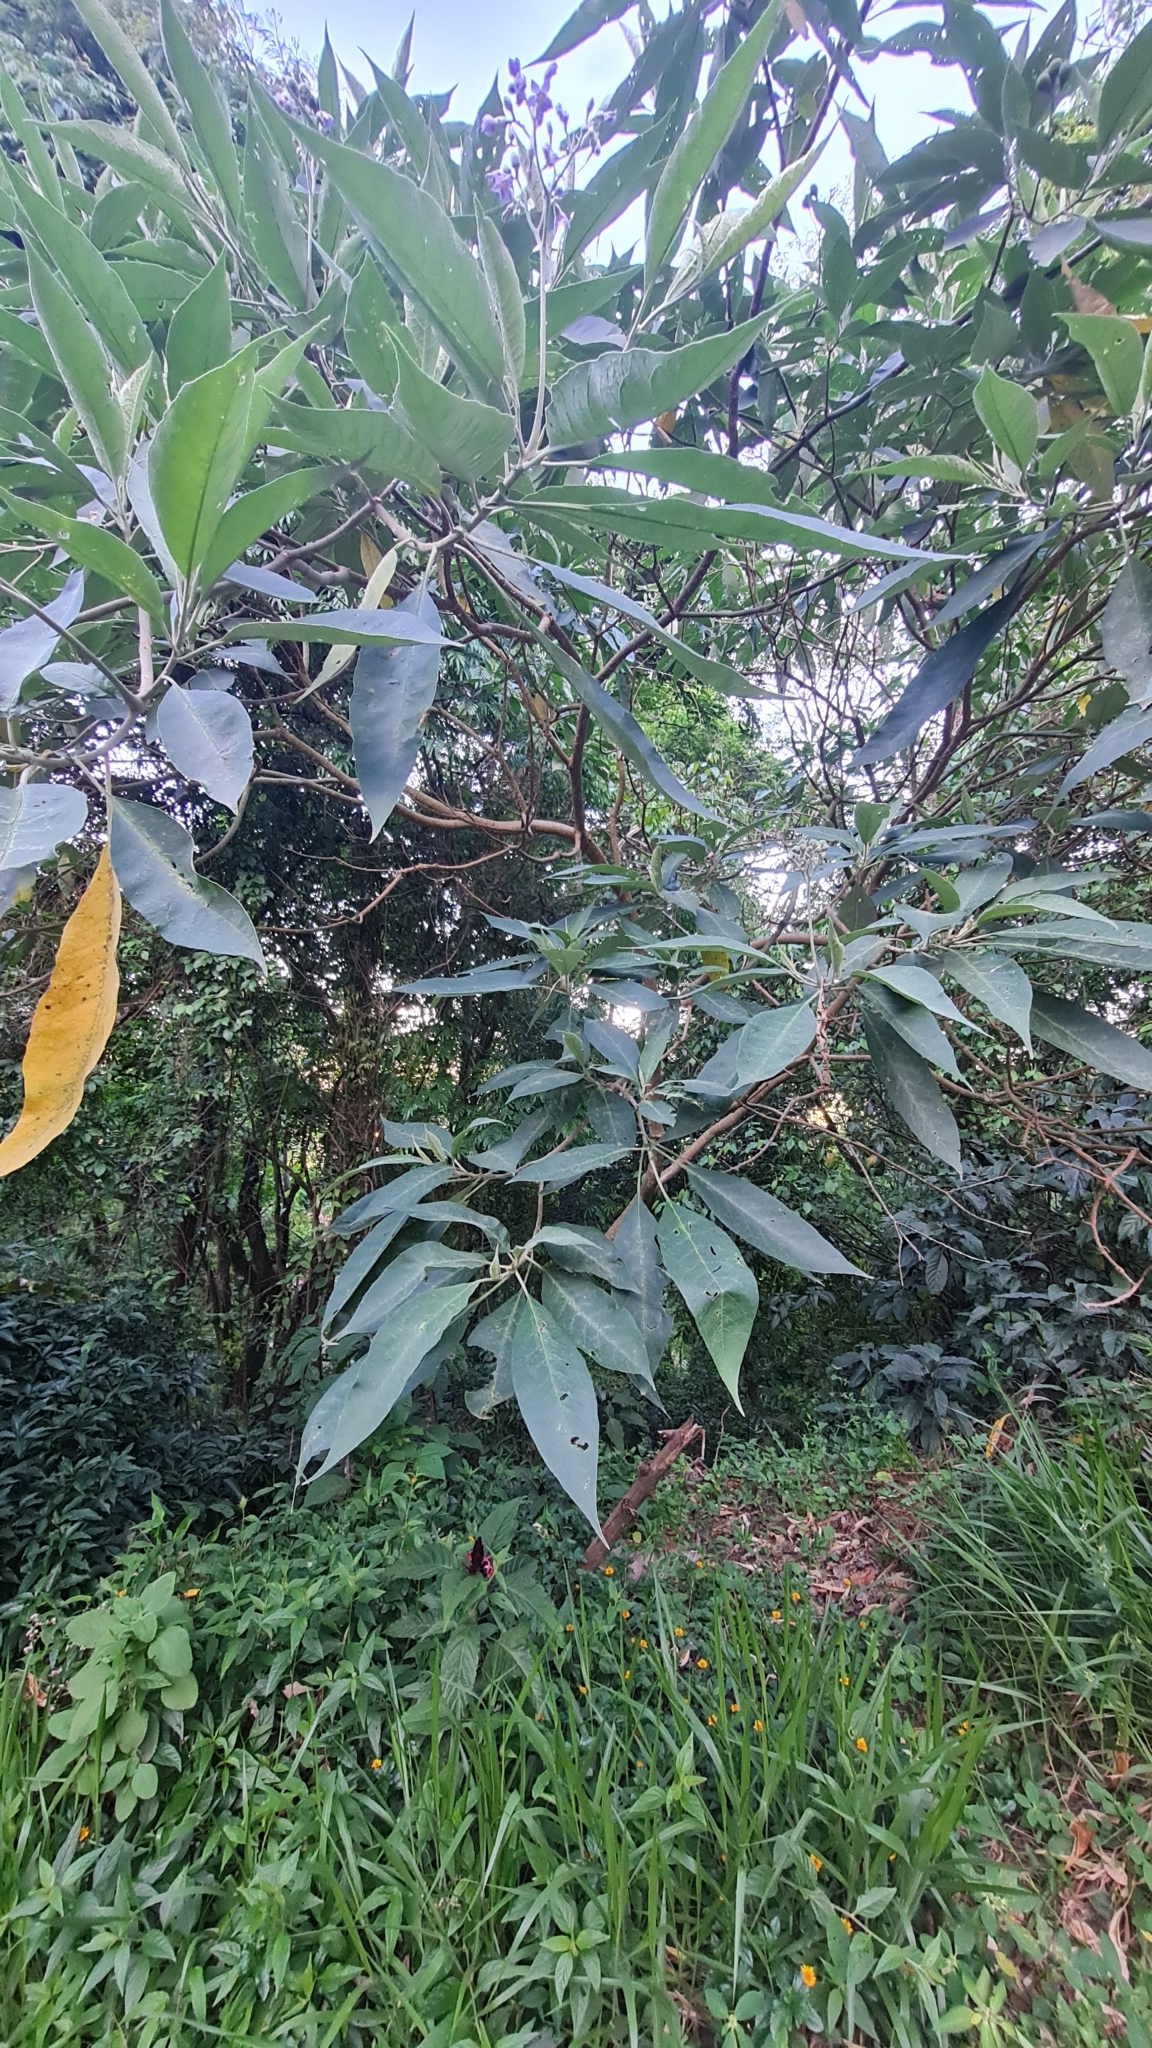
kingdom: Plantae
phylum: Tracheophyta
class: Magnoliopsida
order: Solanales
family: Solanaceae
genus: Solanum
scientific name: Solanum granulosoleprosum
